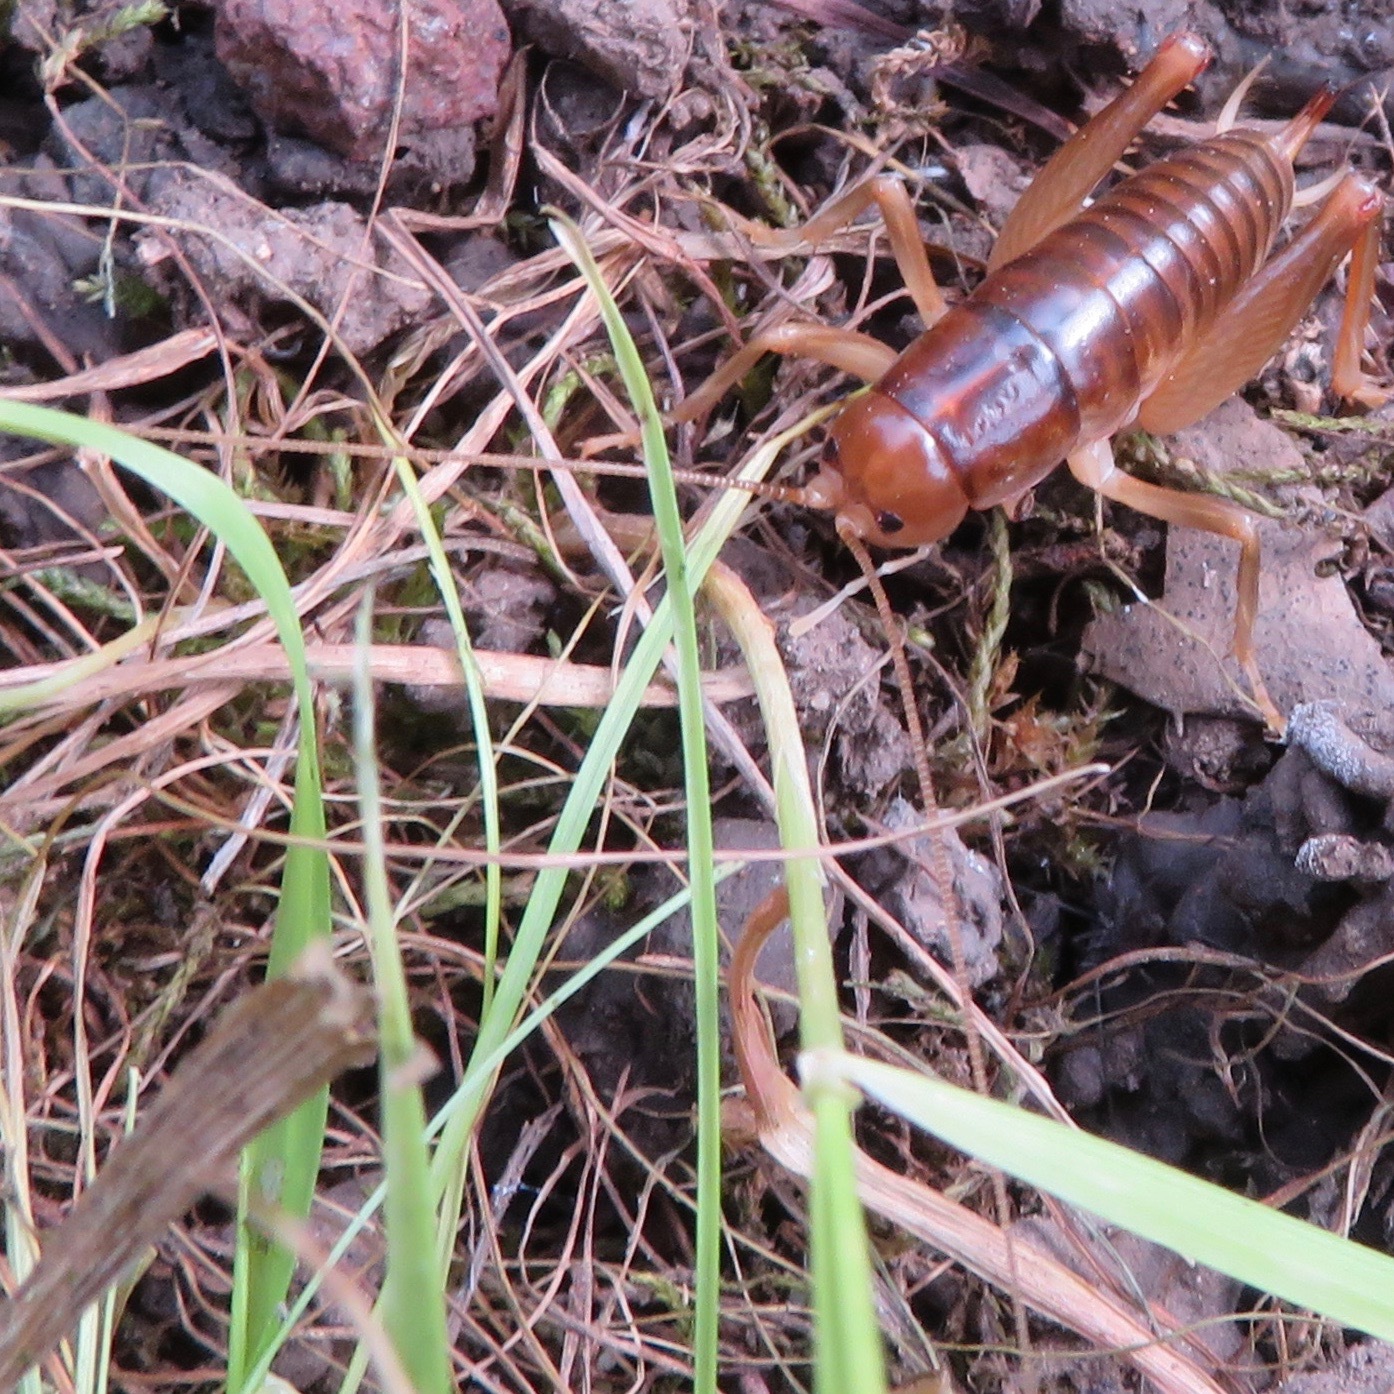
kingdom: Animalia
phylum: Arthropoda
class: Insecta
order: Orthoptera
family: Rhaphidophoridae
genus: Ceuthophilus
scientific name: Ceuthophilus californianus
